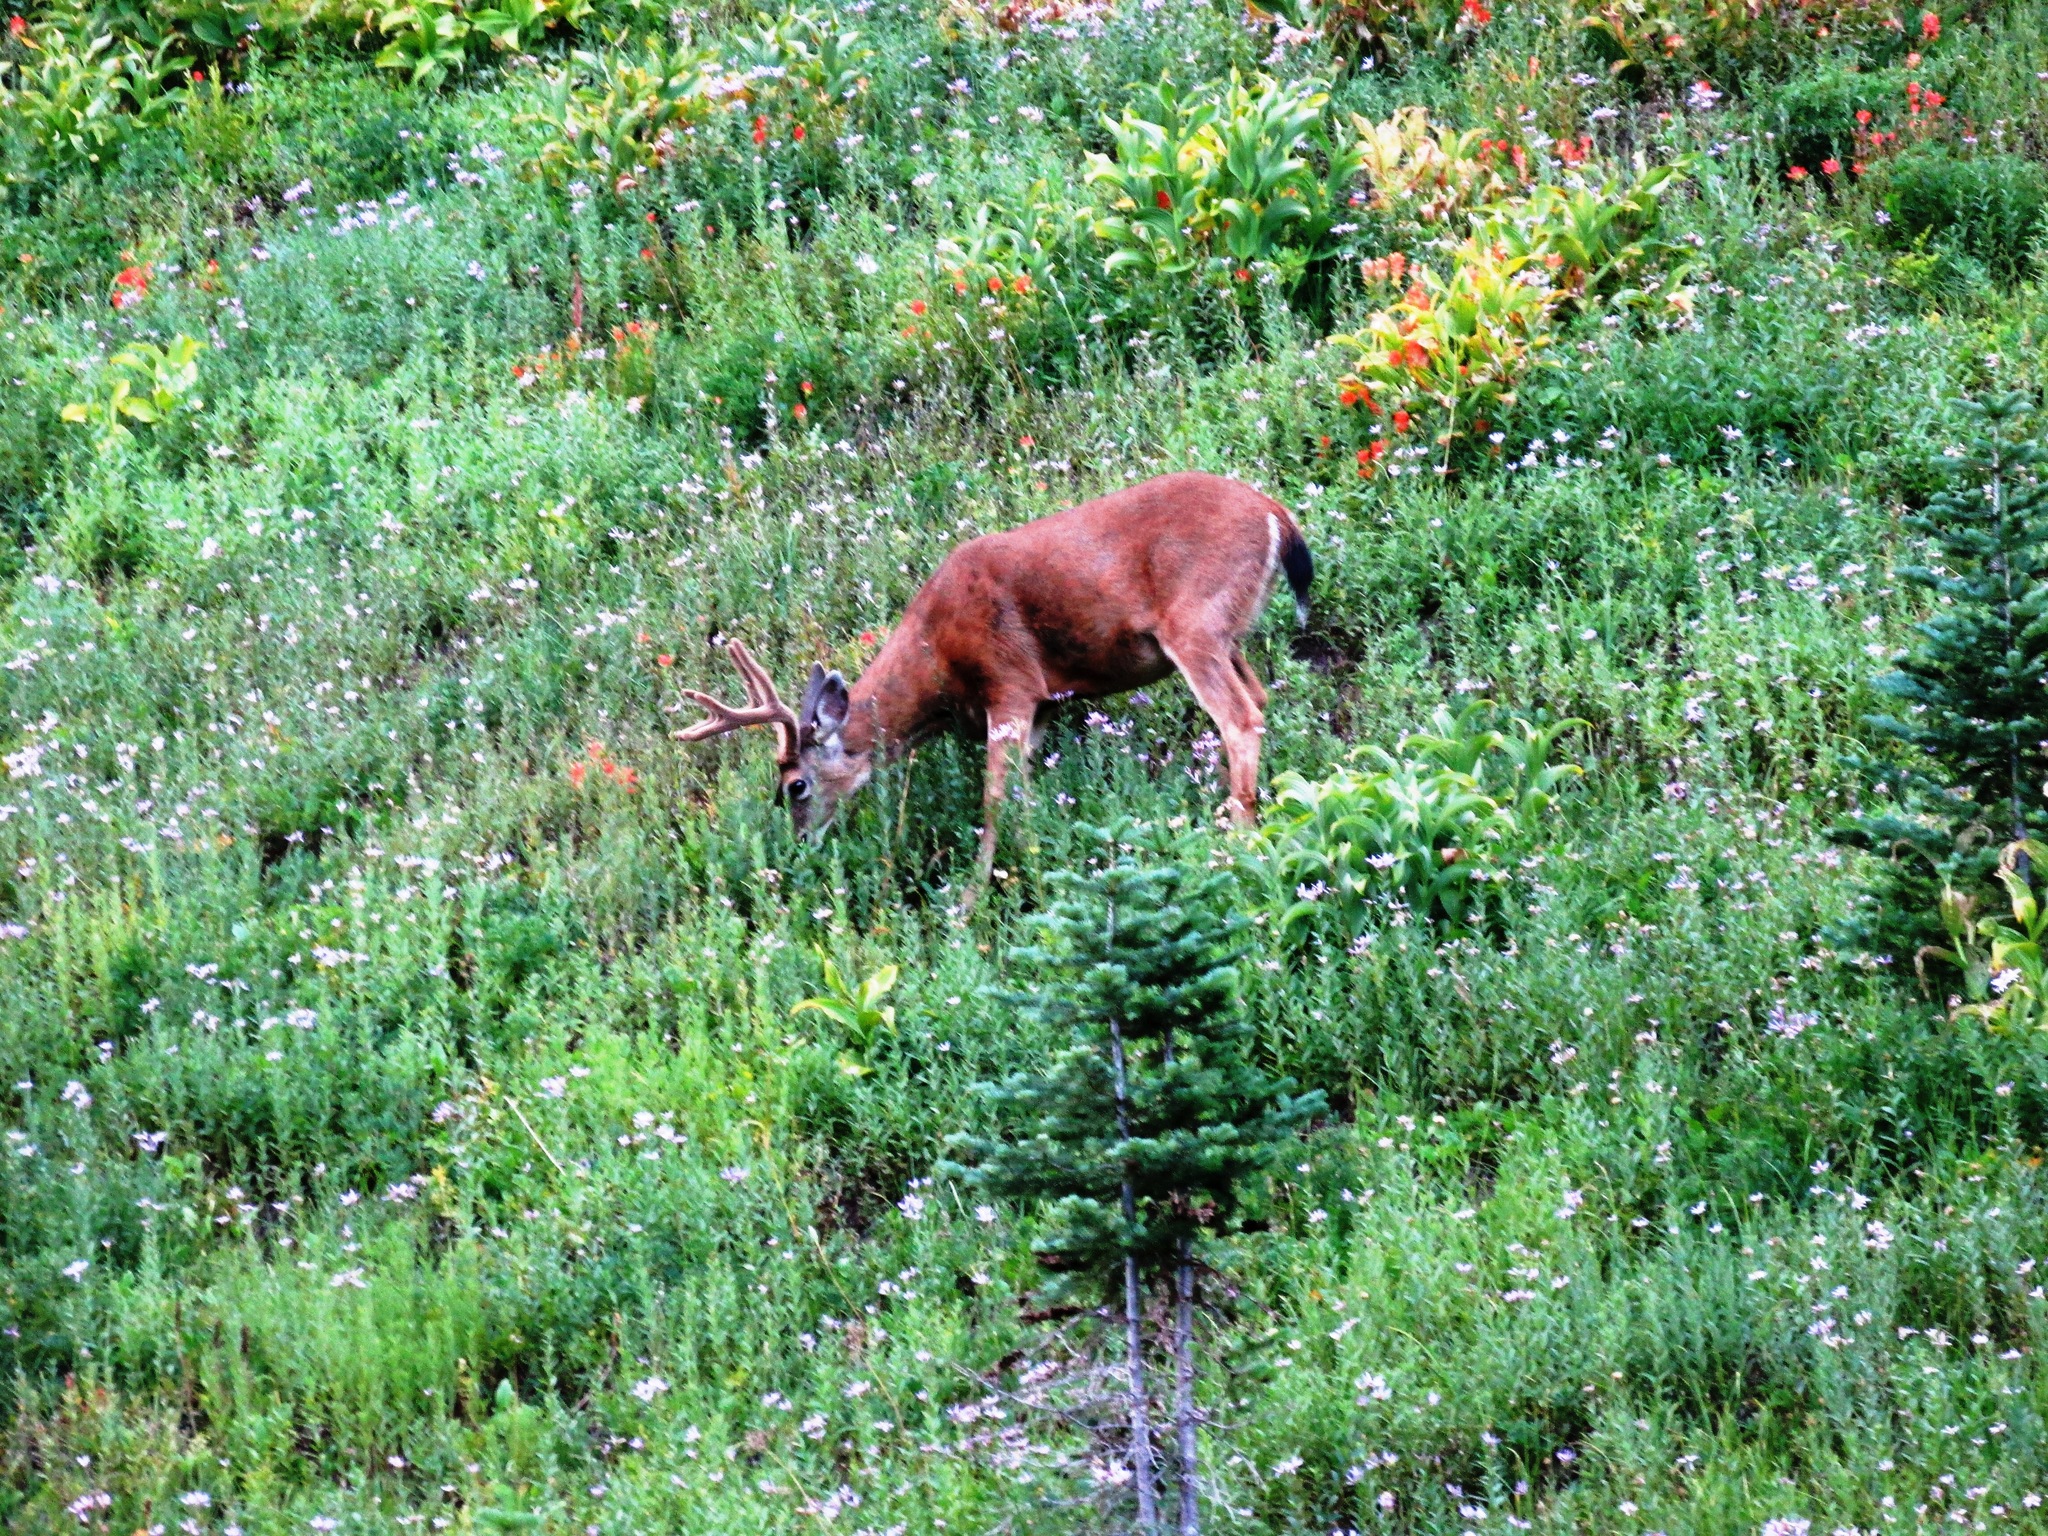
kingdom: Animalia
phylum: Chordata
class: Mammalia
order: Artiodactyla
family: Cervidae
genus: Odocoileus
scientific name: Odocoileus hemionus
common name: Mule deer
